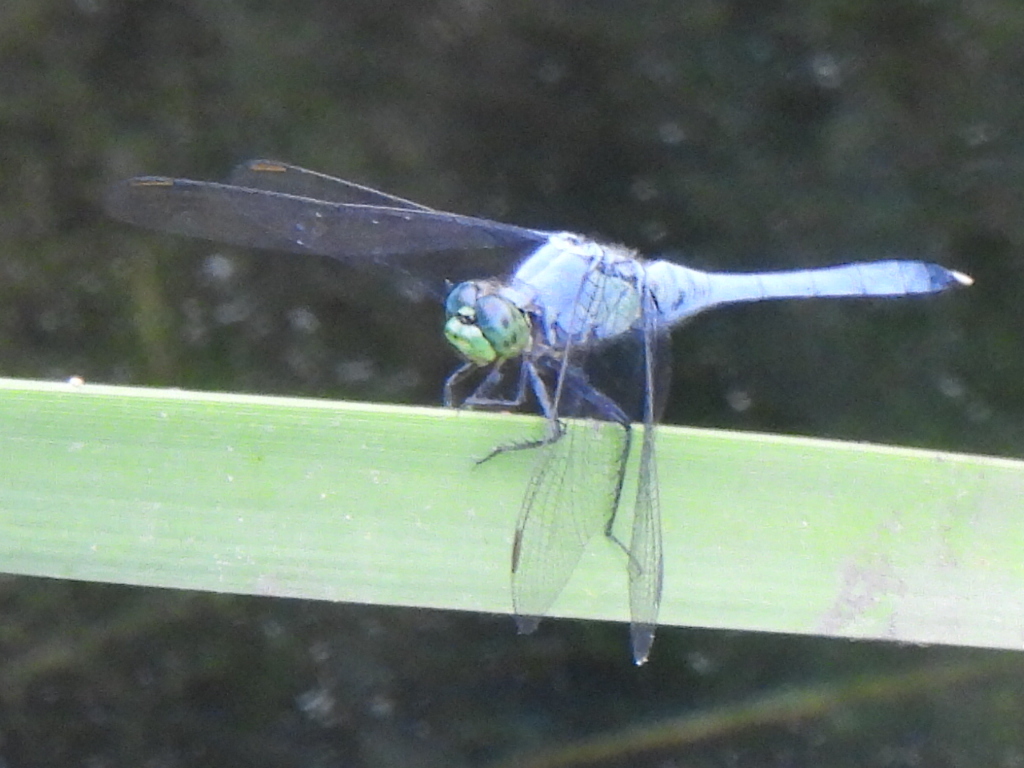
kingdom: Animalia
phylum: Arthropoda
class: Insecta
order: Odonata
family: Libellulidae
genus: Erythemis
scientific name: Erythemis simplicicollis
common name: Eastern pondhawk
